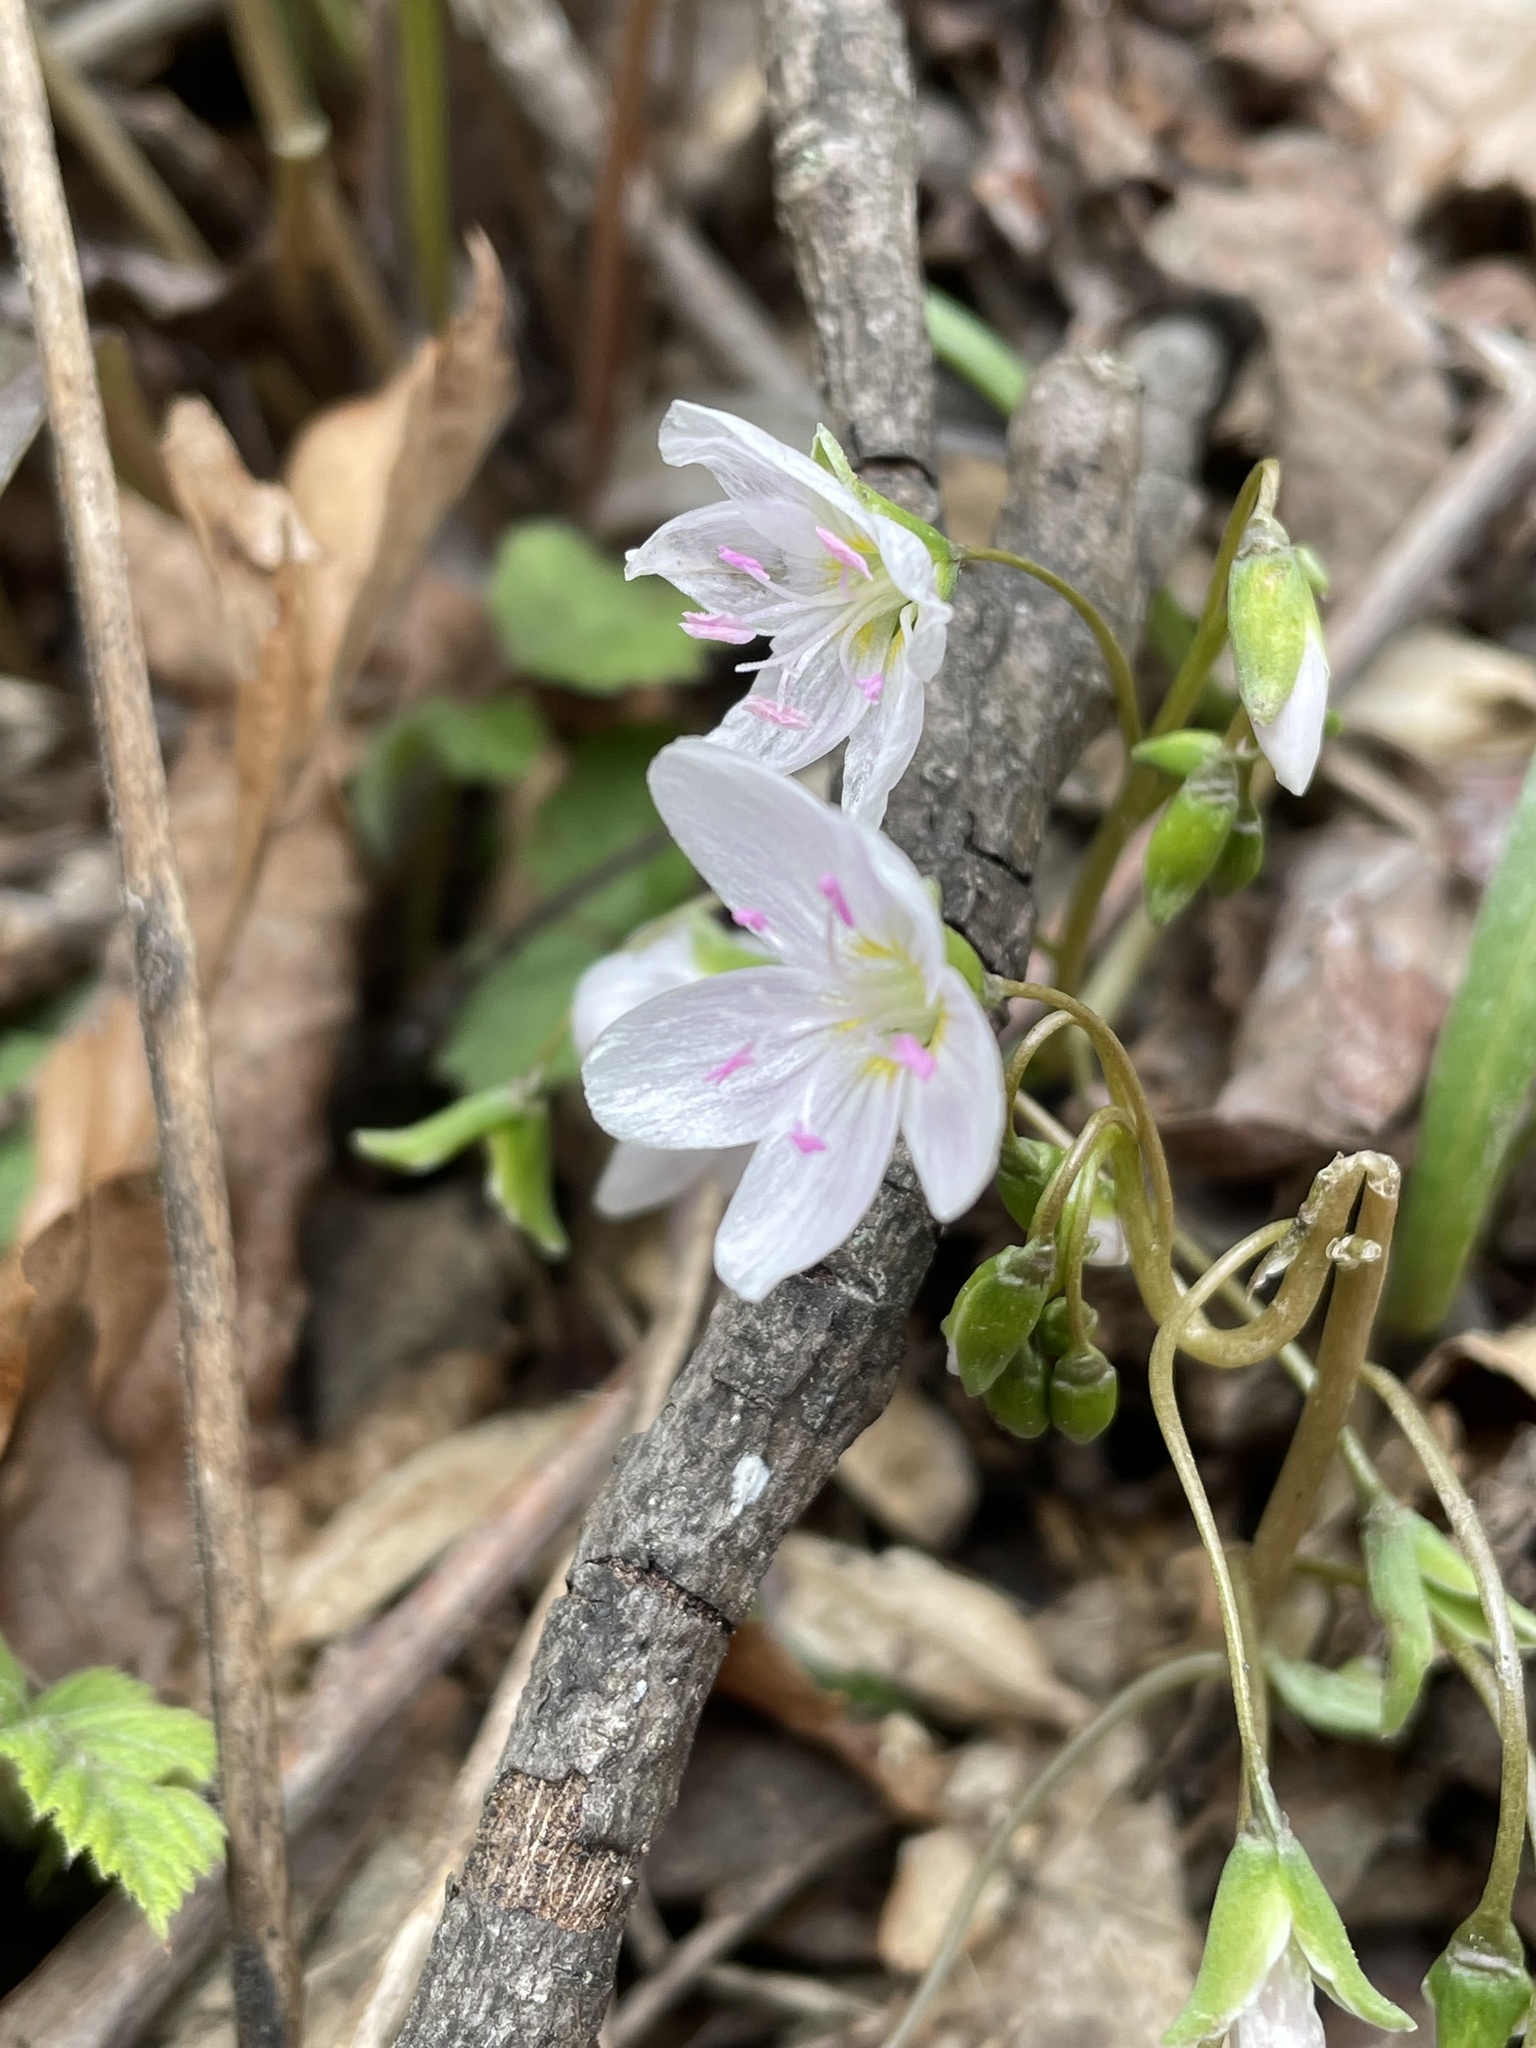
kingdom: Plantae
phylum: Tracheophyta
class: Magnoliopsida
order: Caryophyllales
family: Montiaceae
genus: Claytonia
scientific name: Claytonia virginica
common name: Virginia springbeauty
